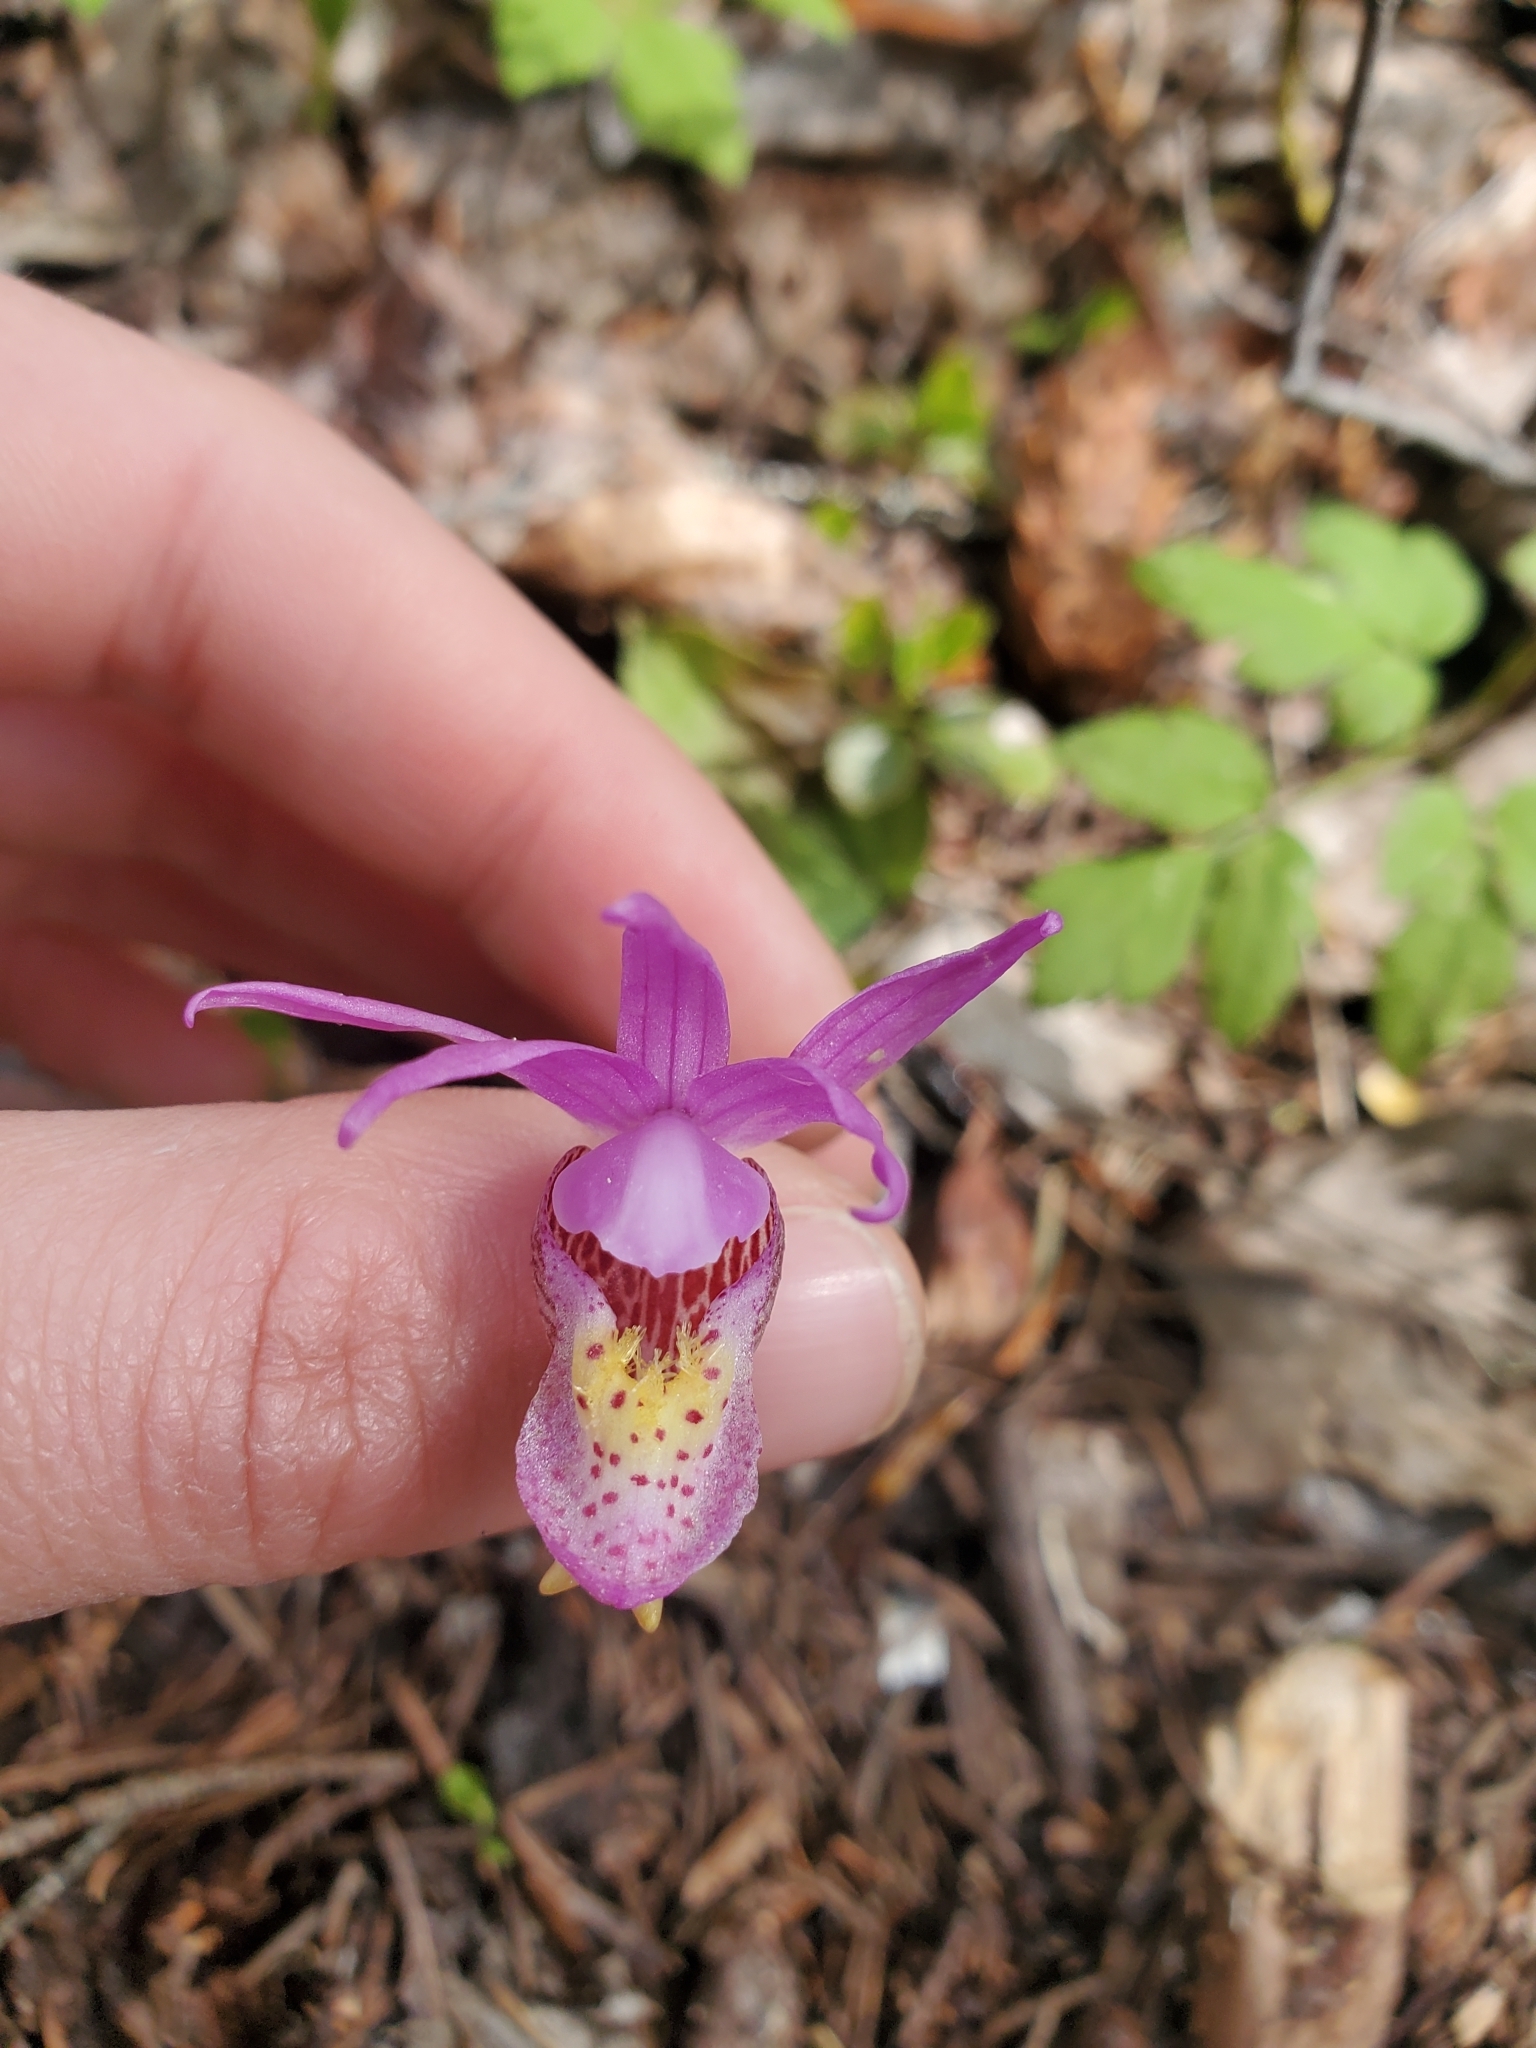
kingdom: Plantae
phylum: Tracheophyta
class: Liliopsida
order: Asparagales
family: Orchidaceae
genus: Calypso
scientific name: Calypso bulbosa
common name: Calypso
